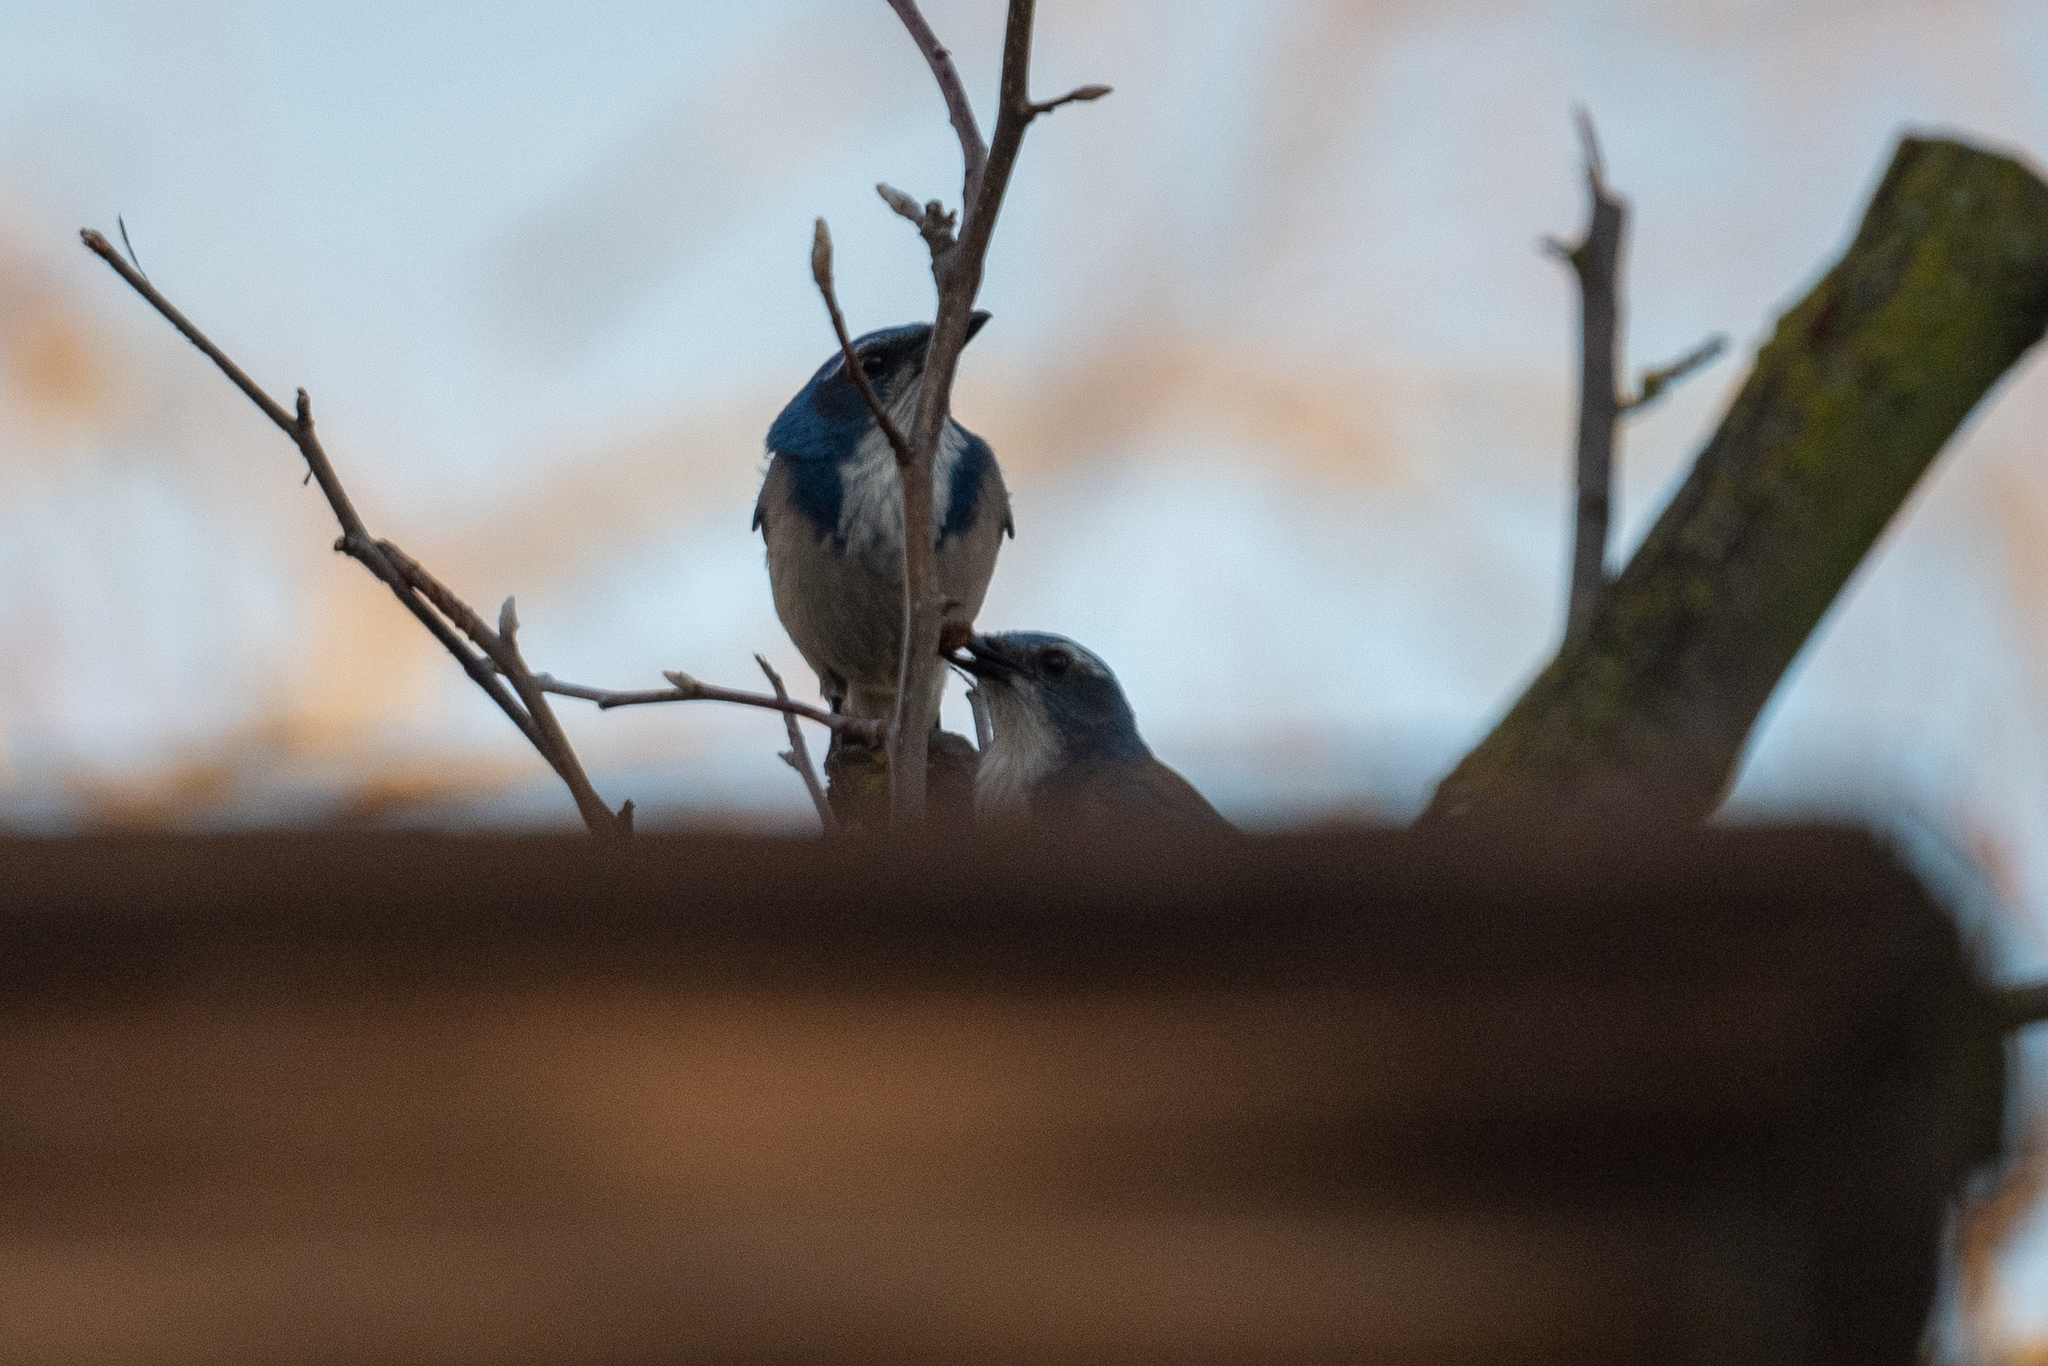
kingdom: Animalia
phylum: Chordata
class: Aves
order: Passeriformes
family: Corvidae
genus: Aphelocoma
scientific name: Aphelocoma californica
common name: California scrub-jay
